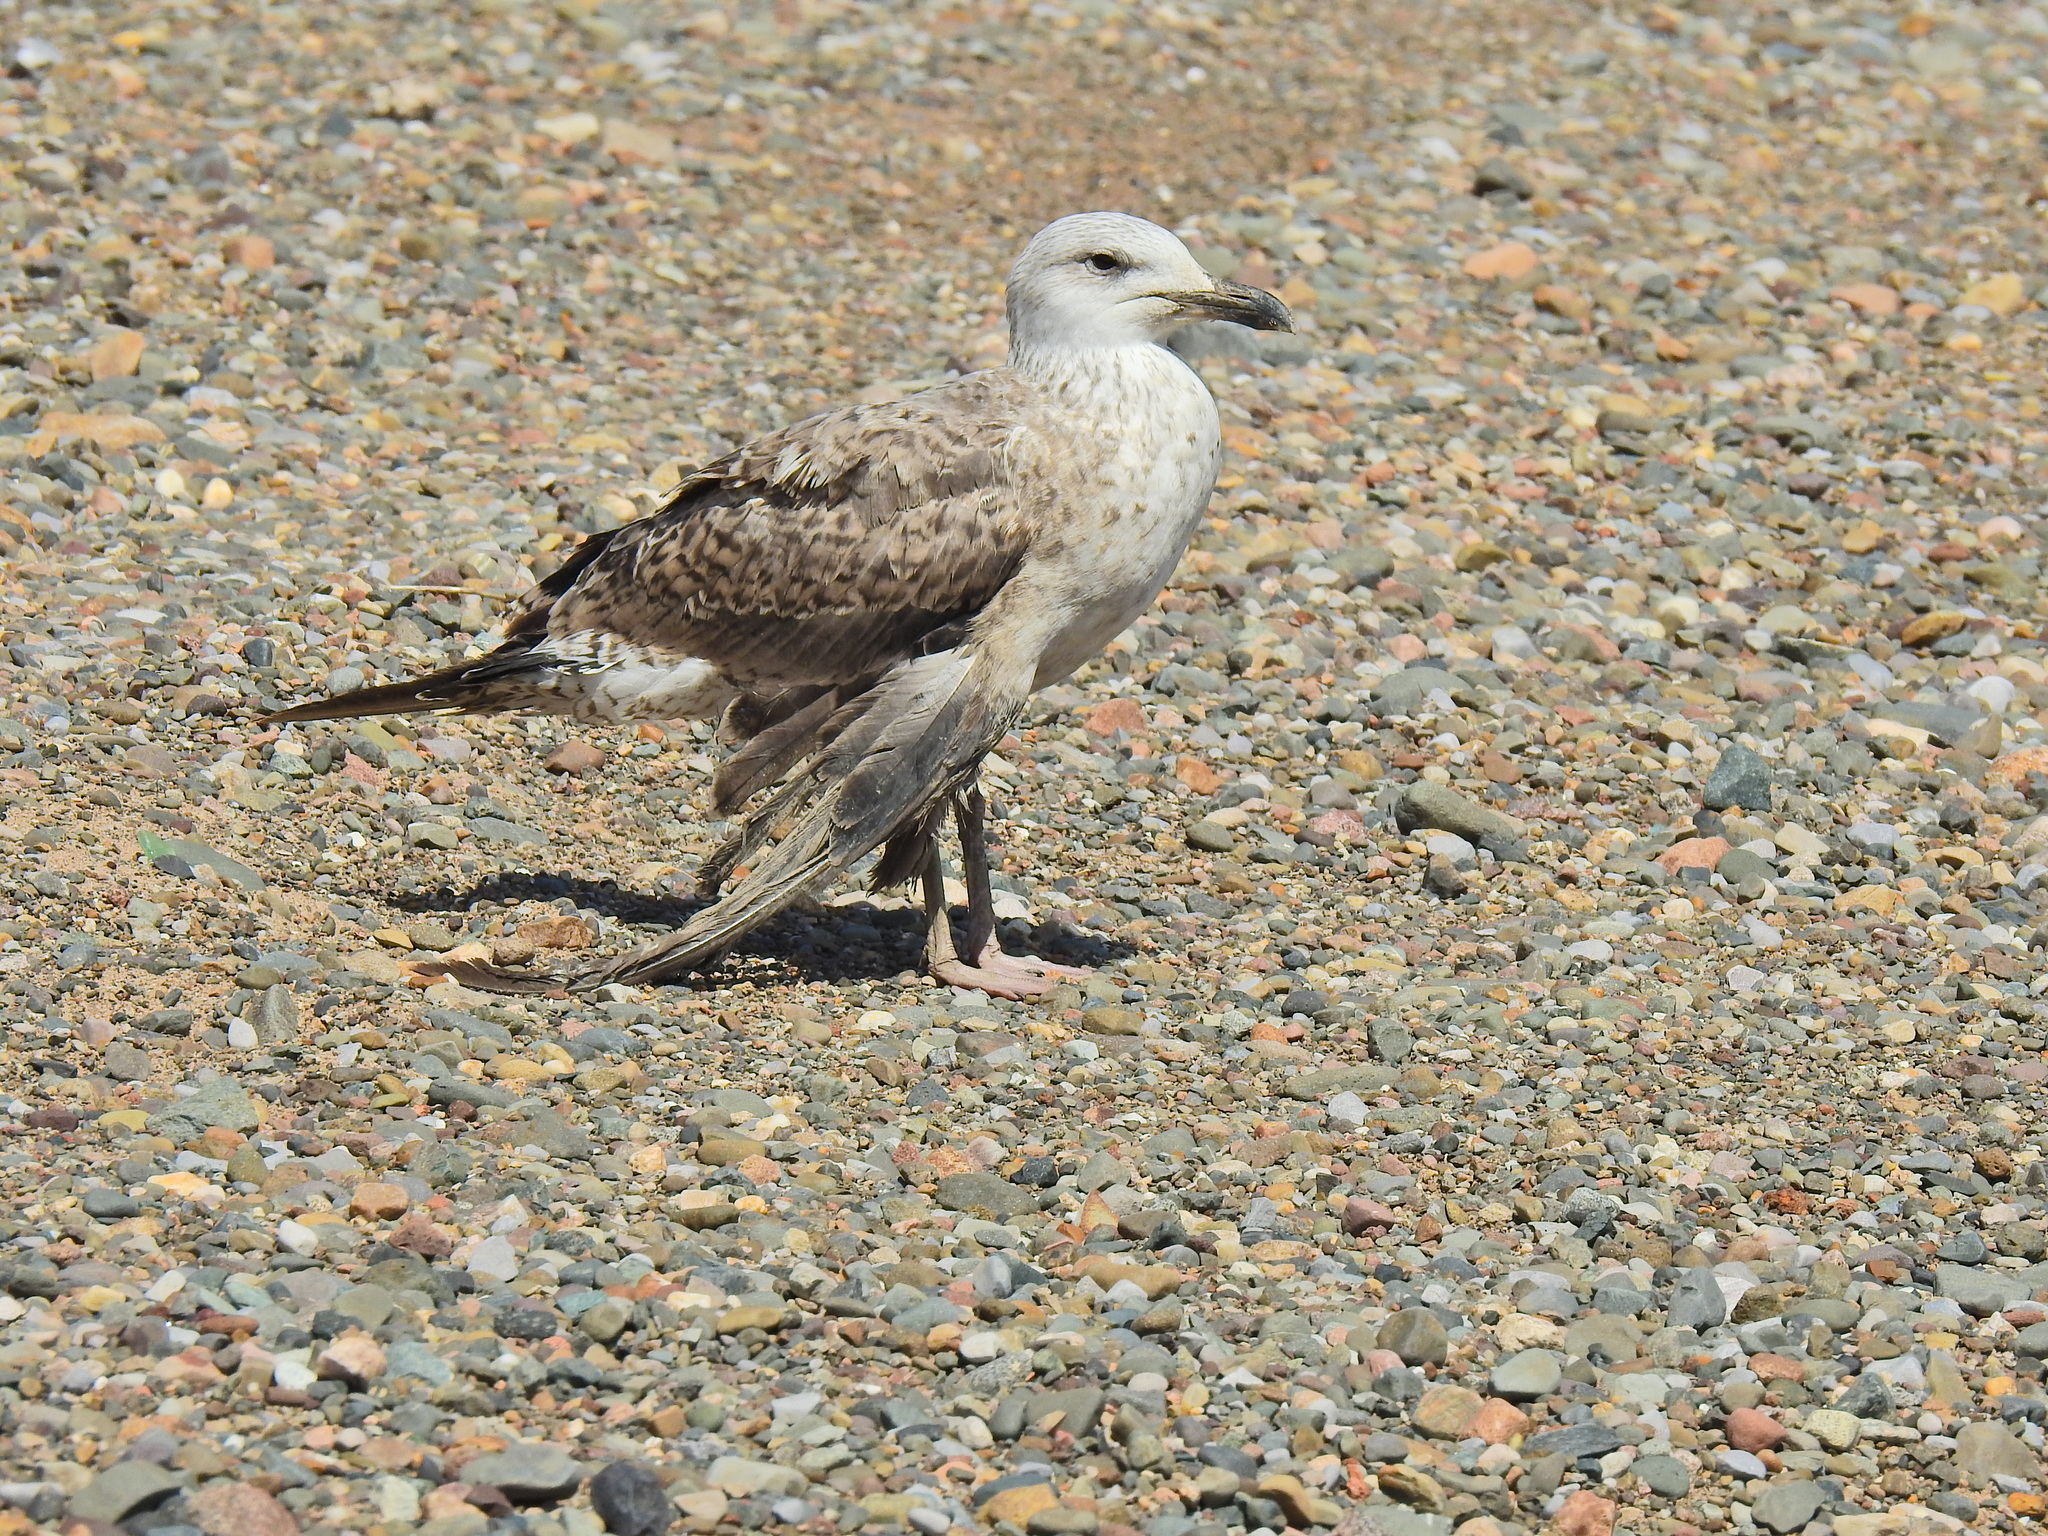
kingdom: Animalia
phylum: Chordata
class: Aves
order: Charadriiformes
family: Laridae
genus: Larus
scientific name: Larus argentatus
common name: Herring gull
